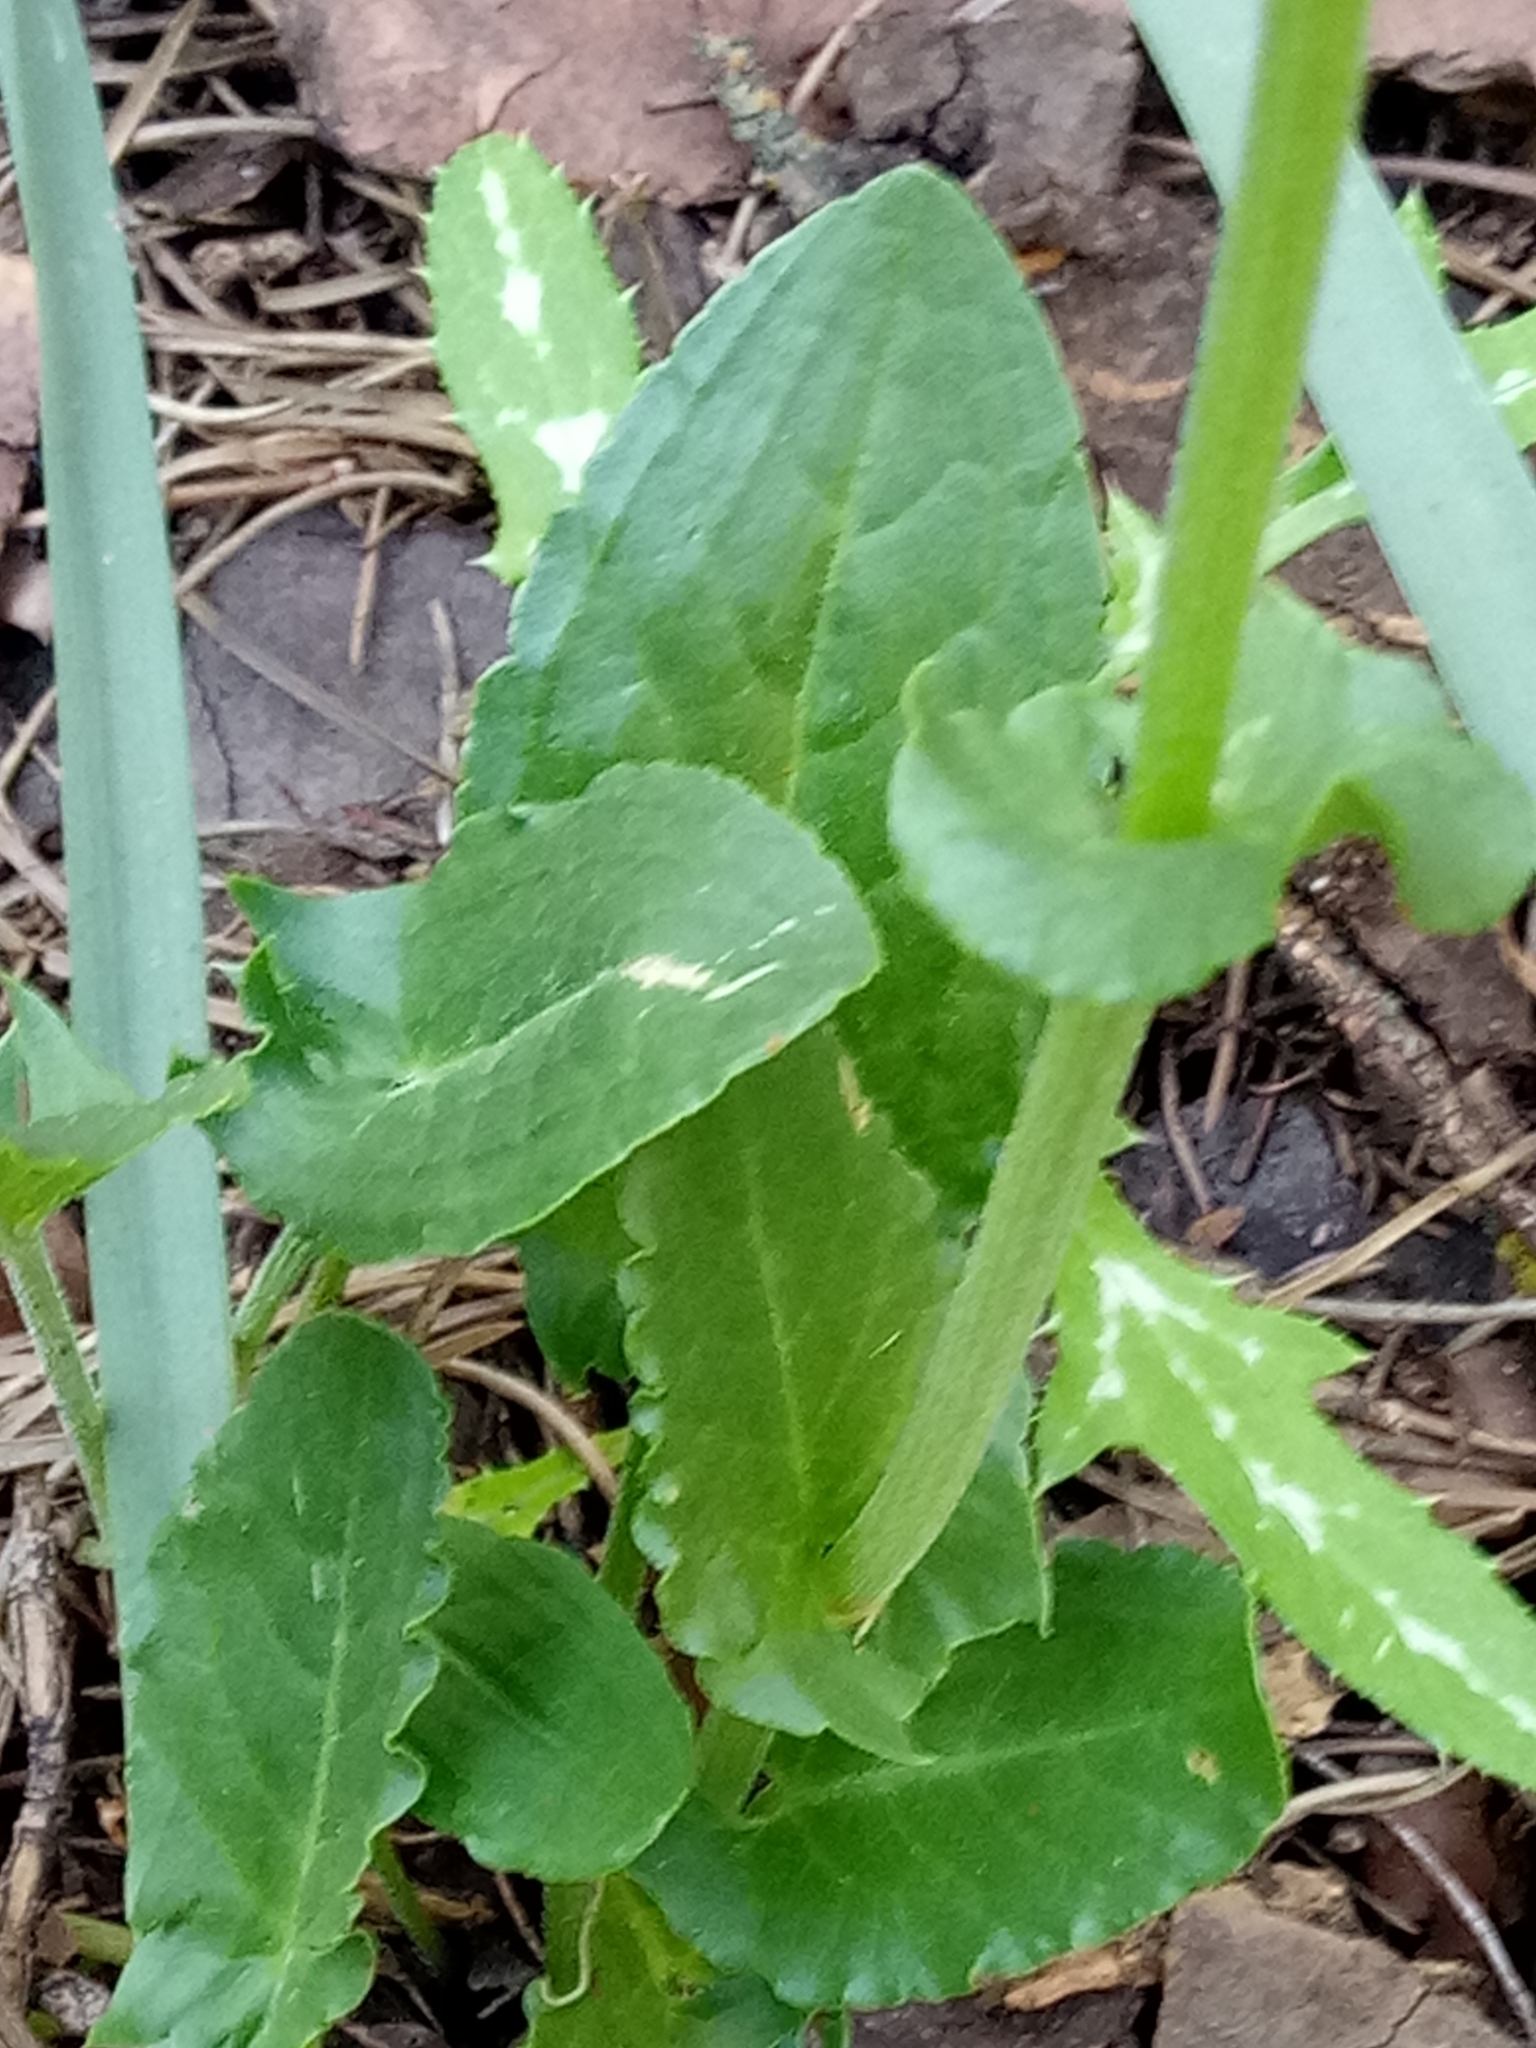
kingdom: Plantae
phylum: Tracheophyta
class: Magnoliopsida
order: Caryophyllales
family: Polygonaceae
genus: Rumex
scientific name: Rumex thyrsoides
